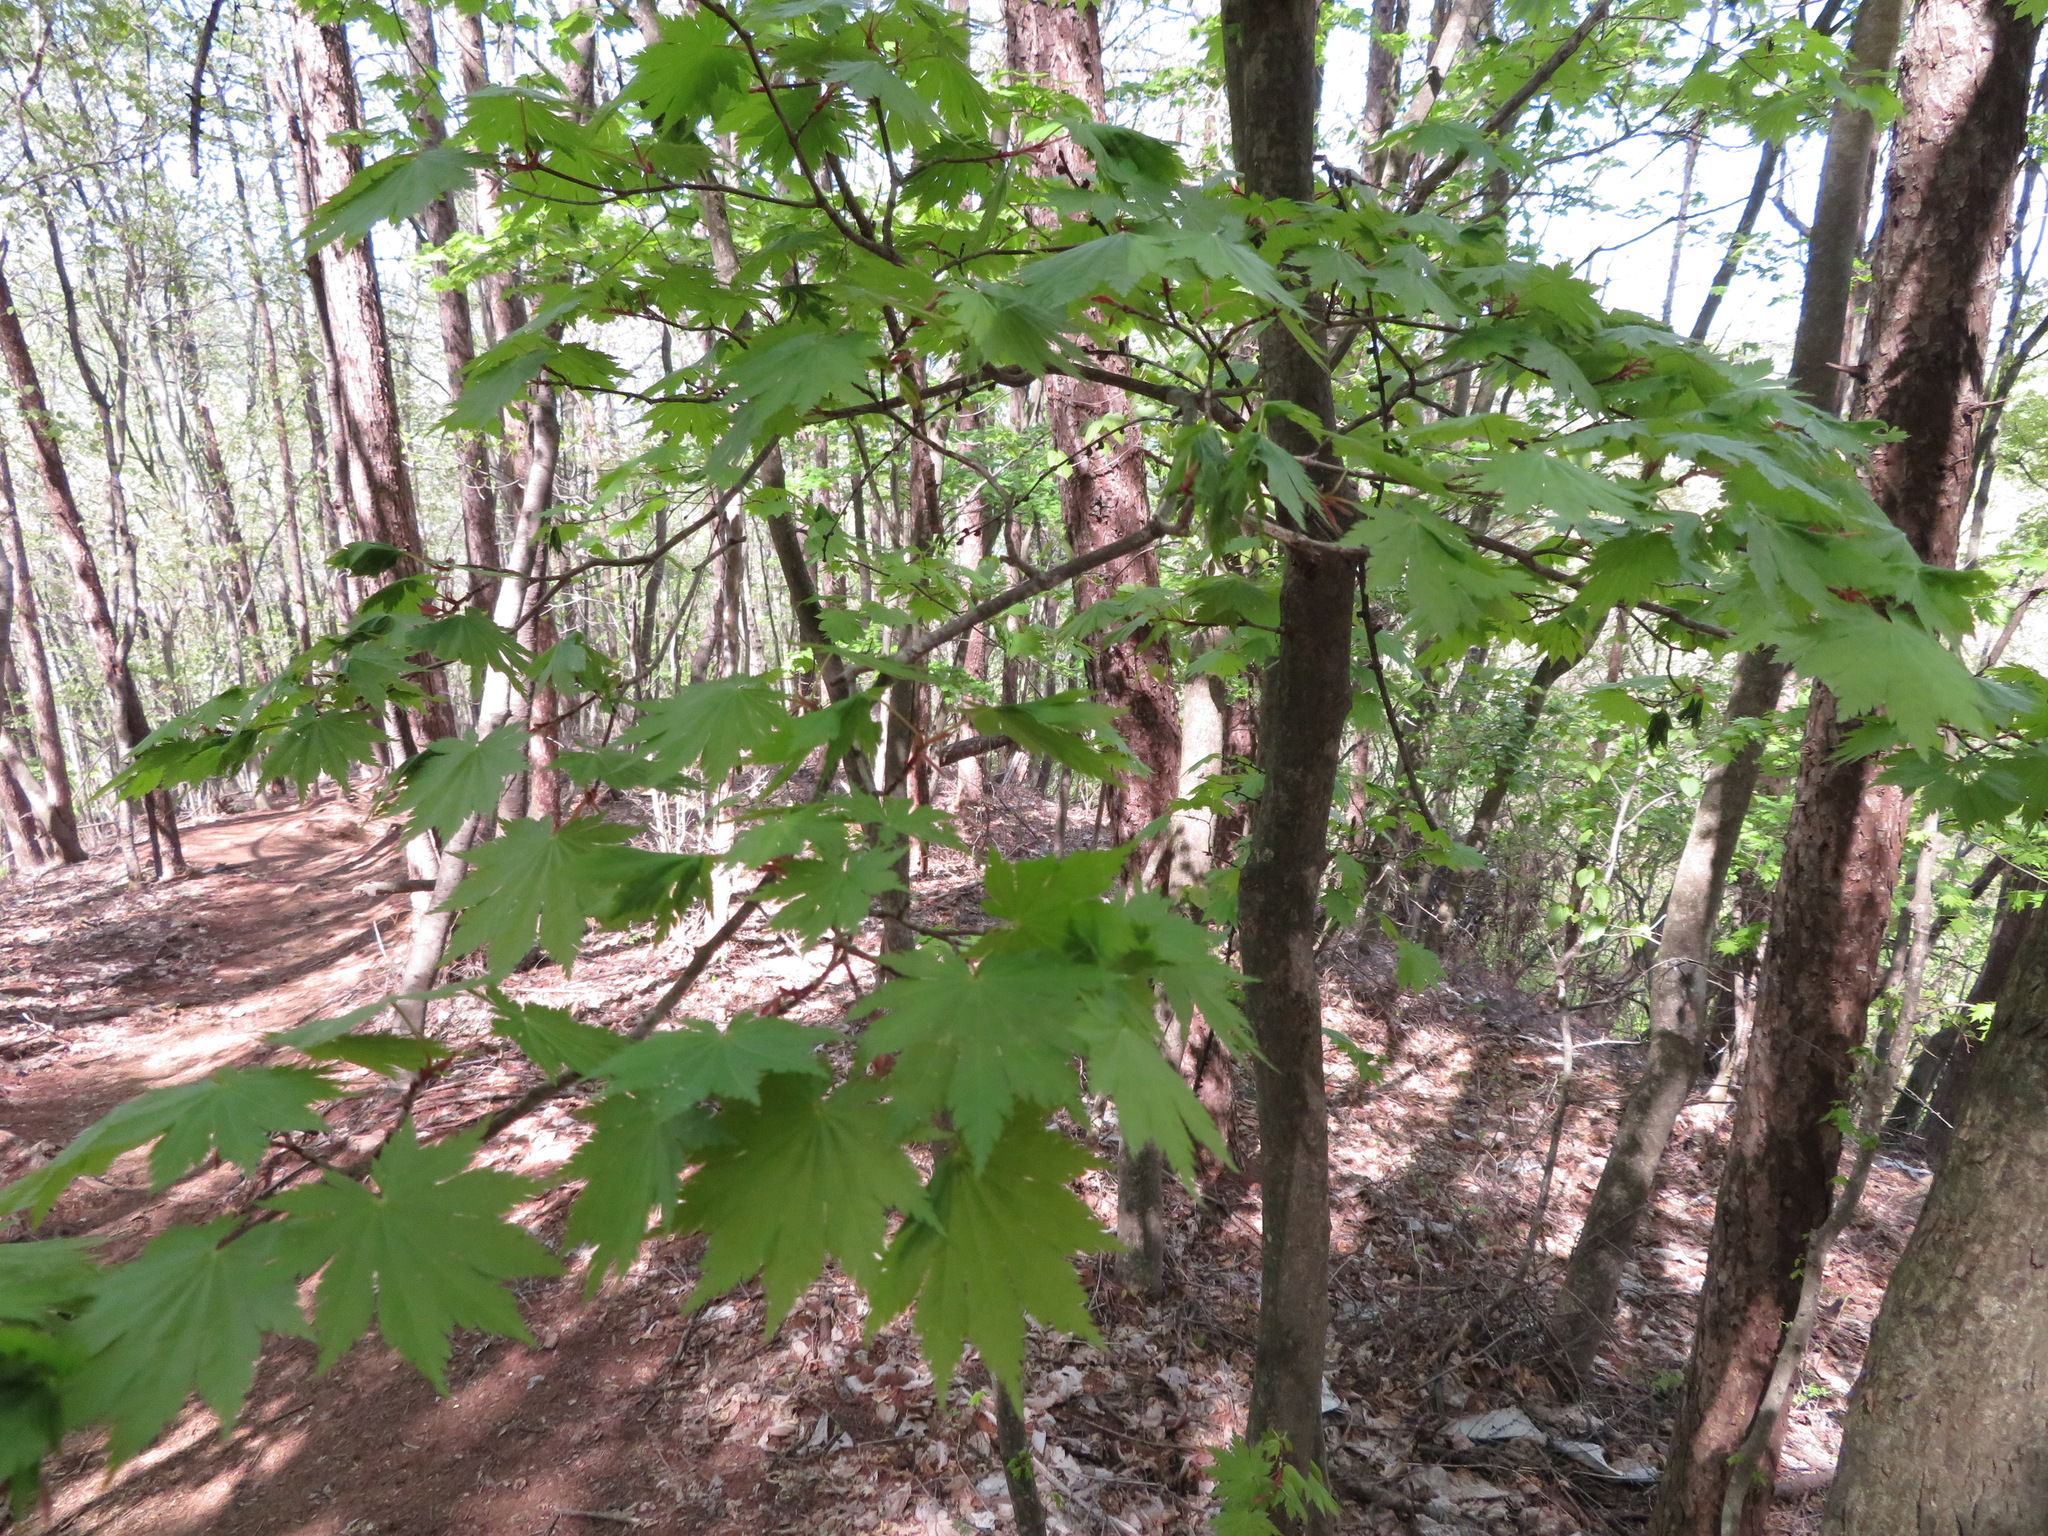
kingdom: Plantae
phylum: Tracheophyta
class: Magnoliopsida
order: Sapindales
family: Sapindaceae
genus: Acer
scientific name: Acer japonicum
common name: Amur maple
